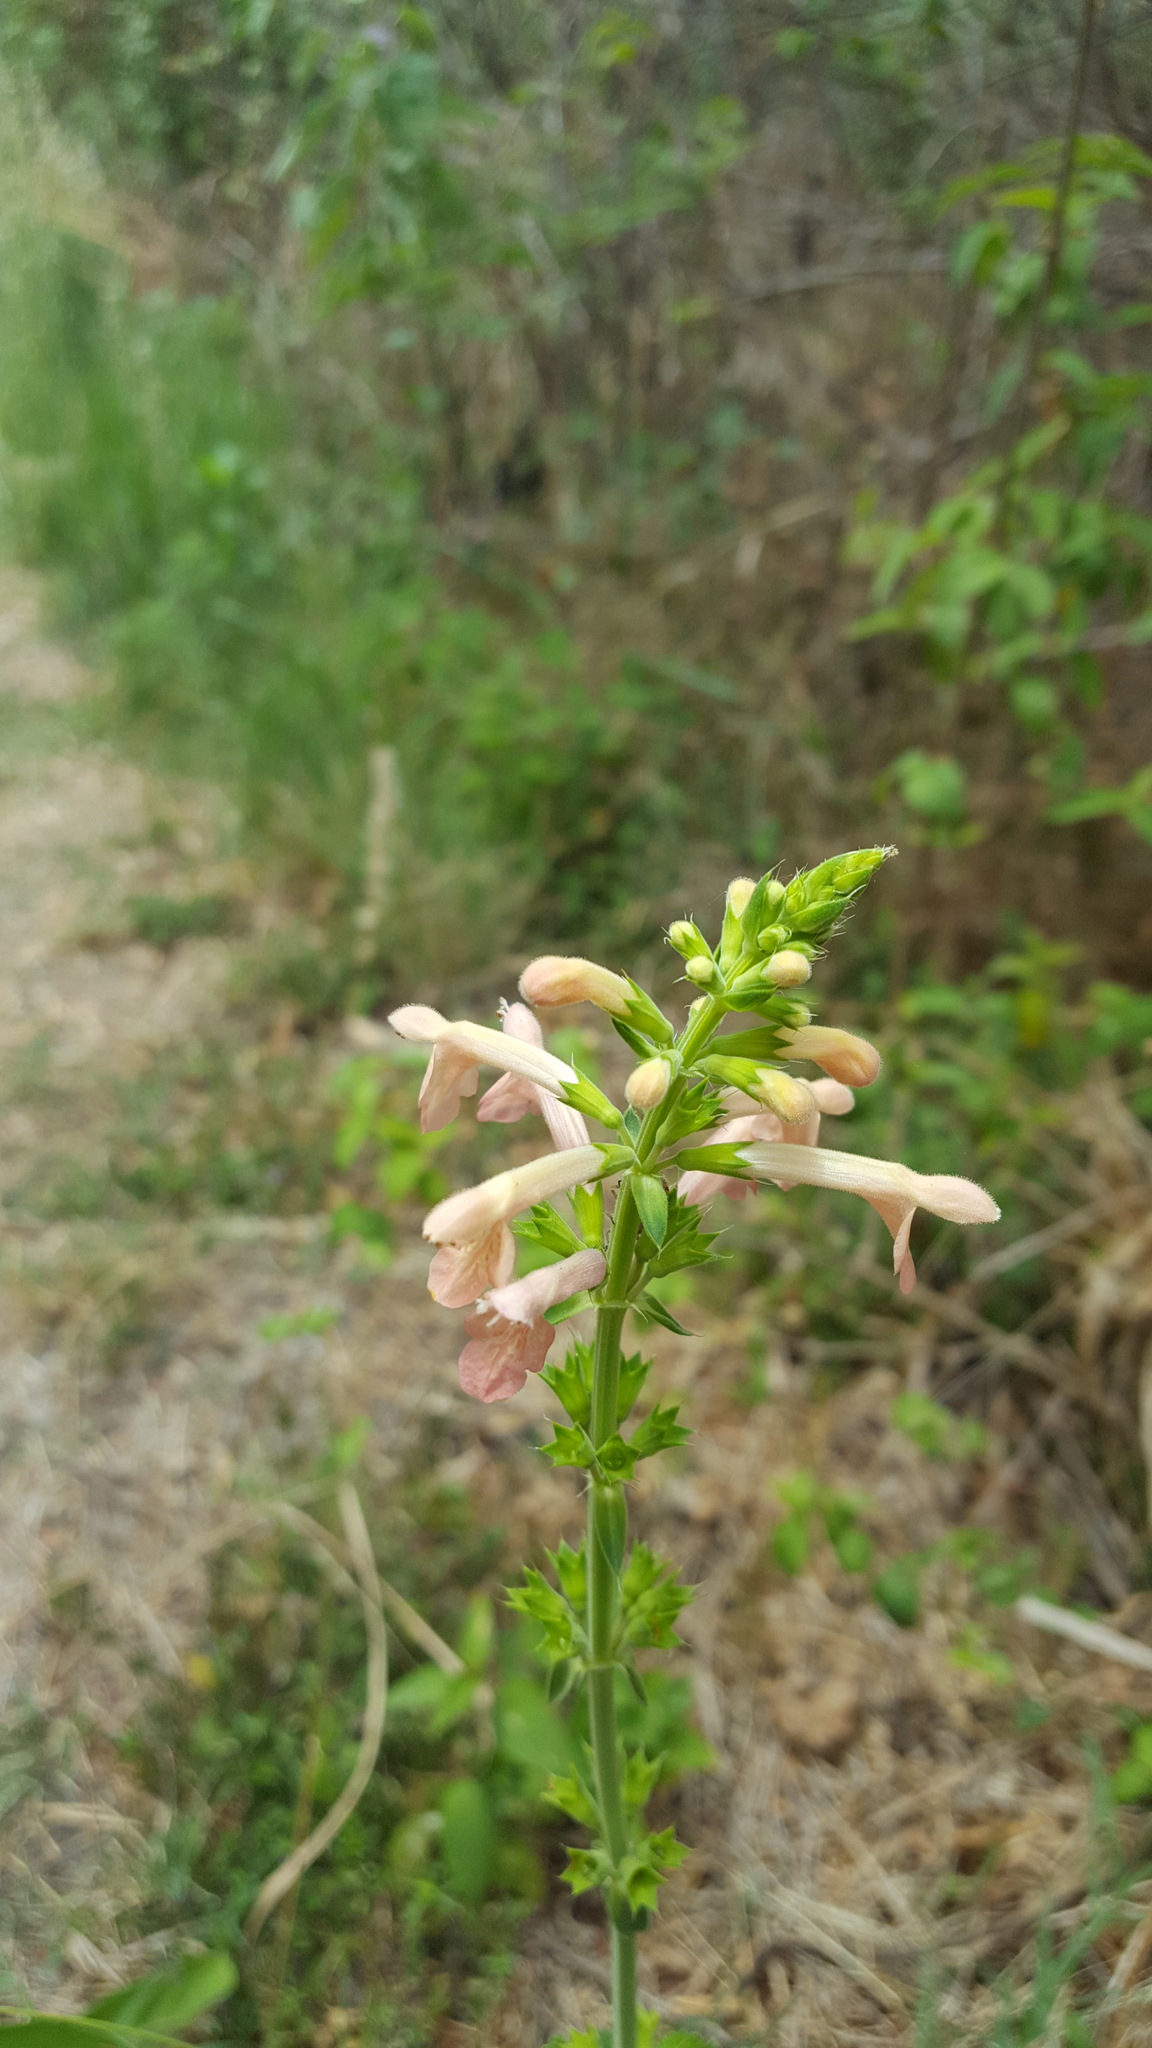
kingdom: Plantae
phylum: Tracheophyta
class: Magnoliopsida
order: Lamiales
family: Lamiaceae
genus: Stachys
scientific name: Stachys coccinea
